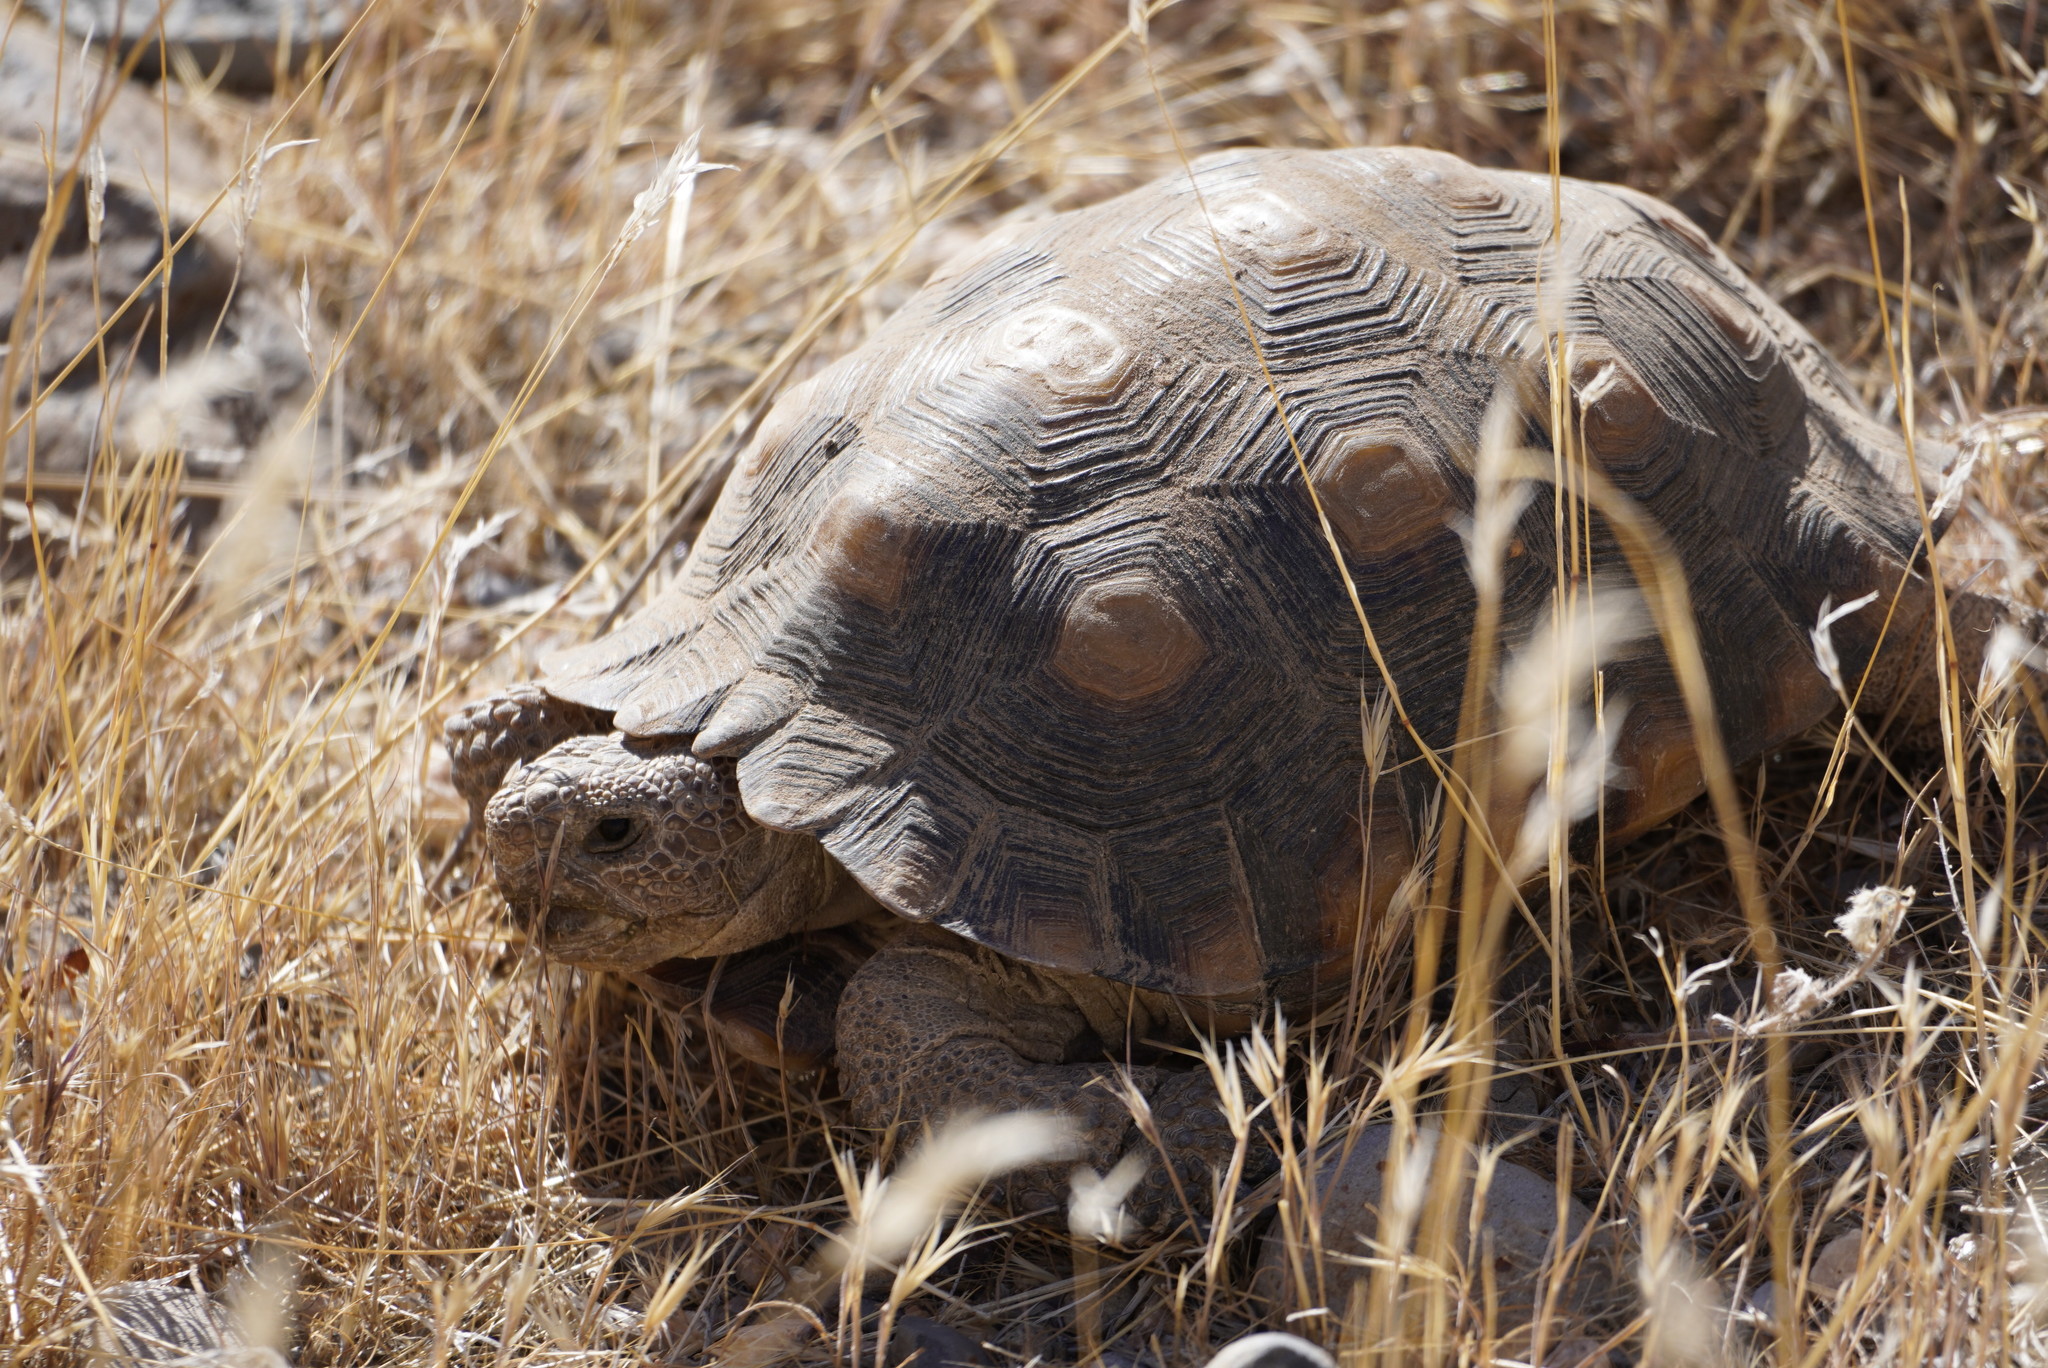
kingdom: Animalia
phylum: Chordata
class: Testudines
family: Testudinidae
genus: Gopherus
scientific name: Gopherus morafkai
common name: Sonoran desert tortoise
